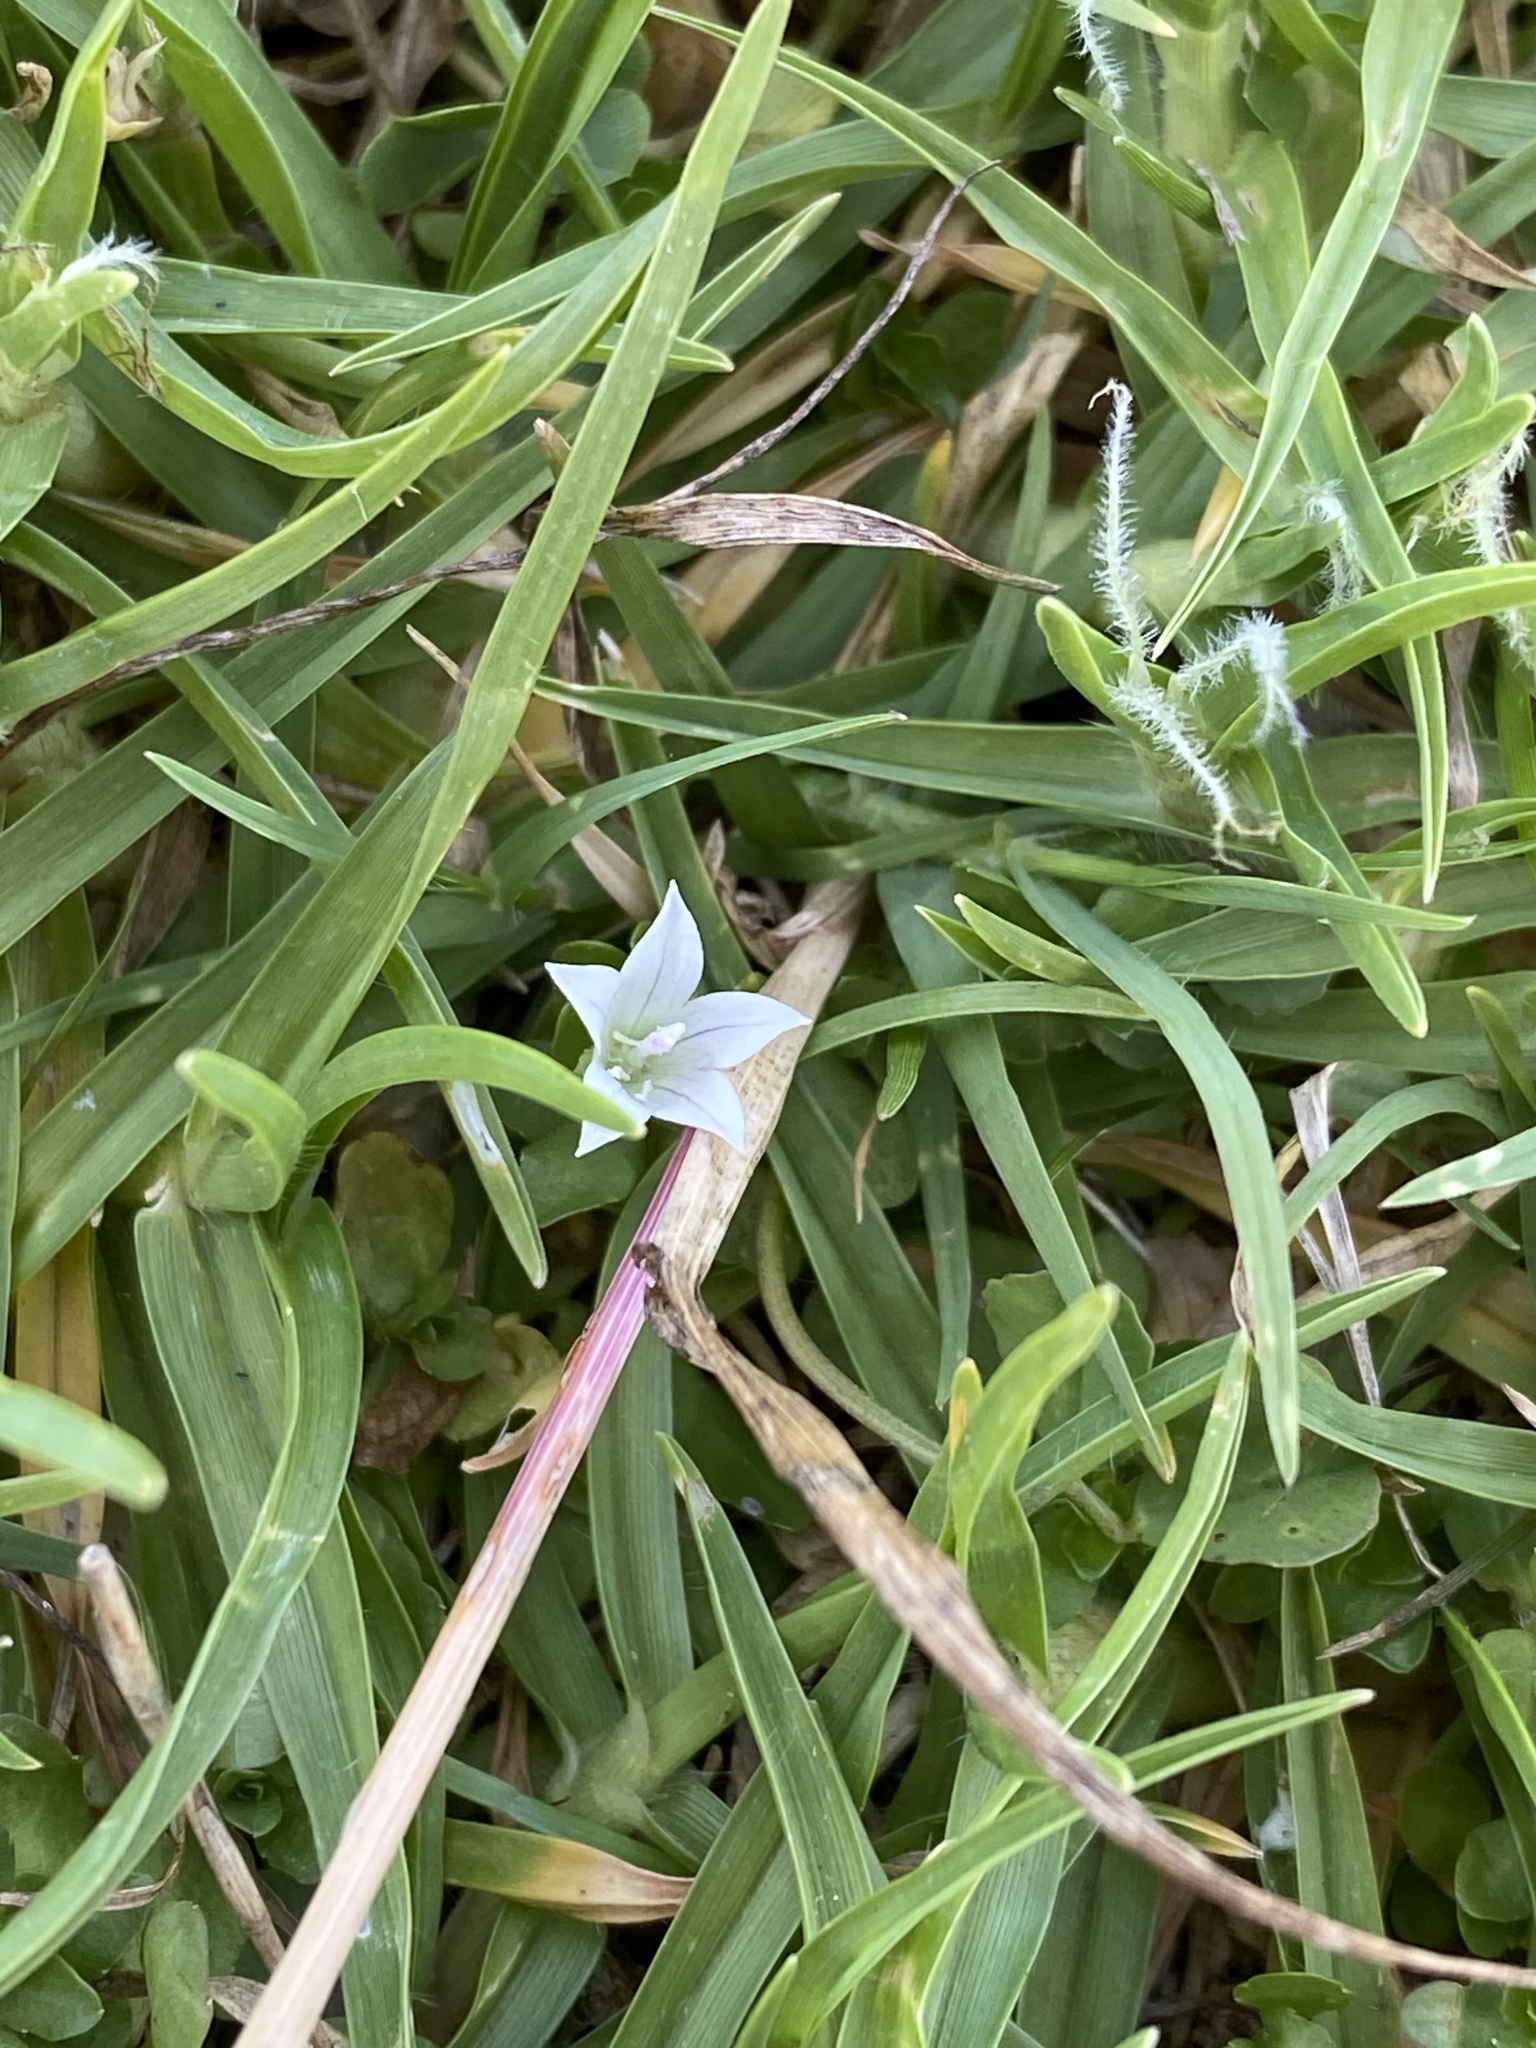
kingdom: Plantae
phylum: Tracheophyta
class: Magnoliopsida
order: Asterales
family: Campanulaceae
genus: Wahlenbergia
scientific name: Wahlenbergia procumbens
